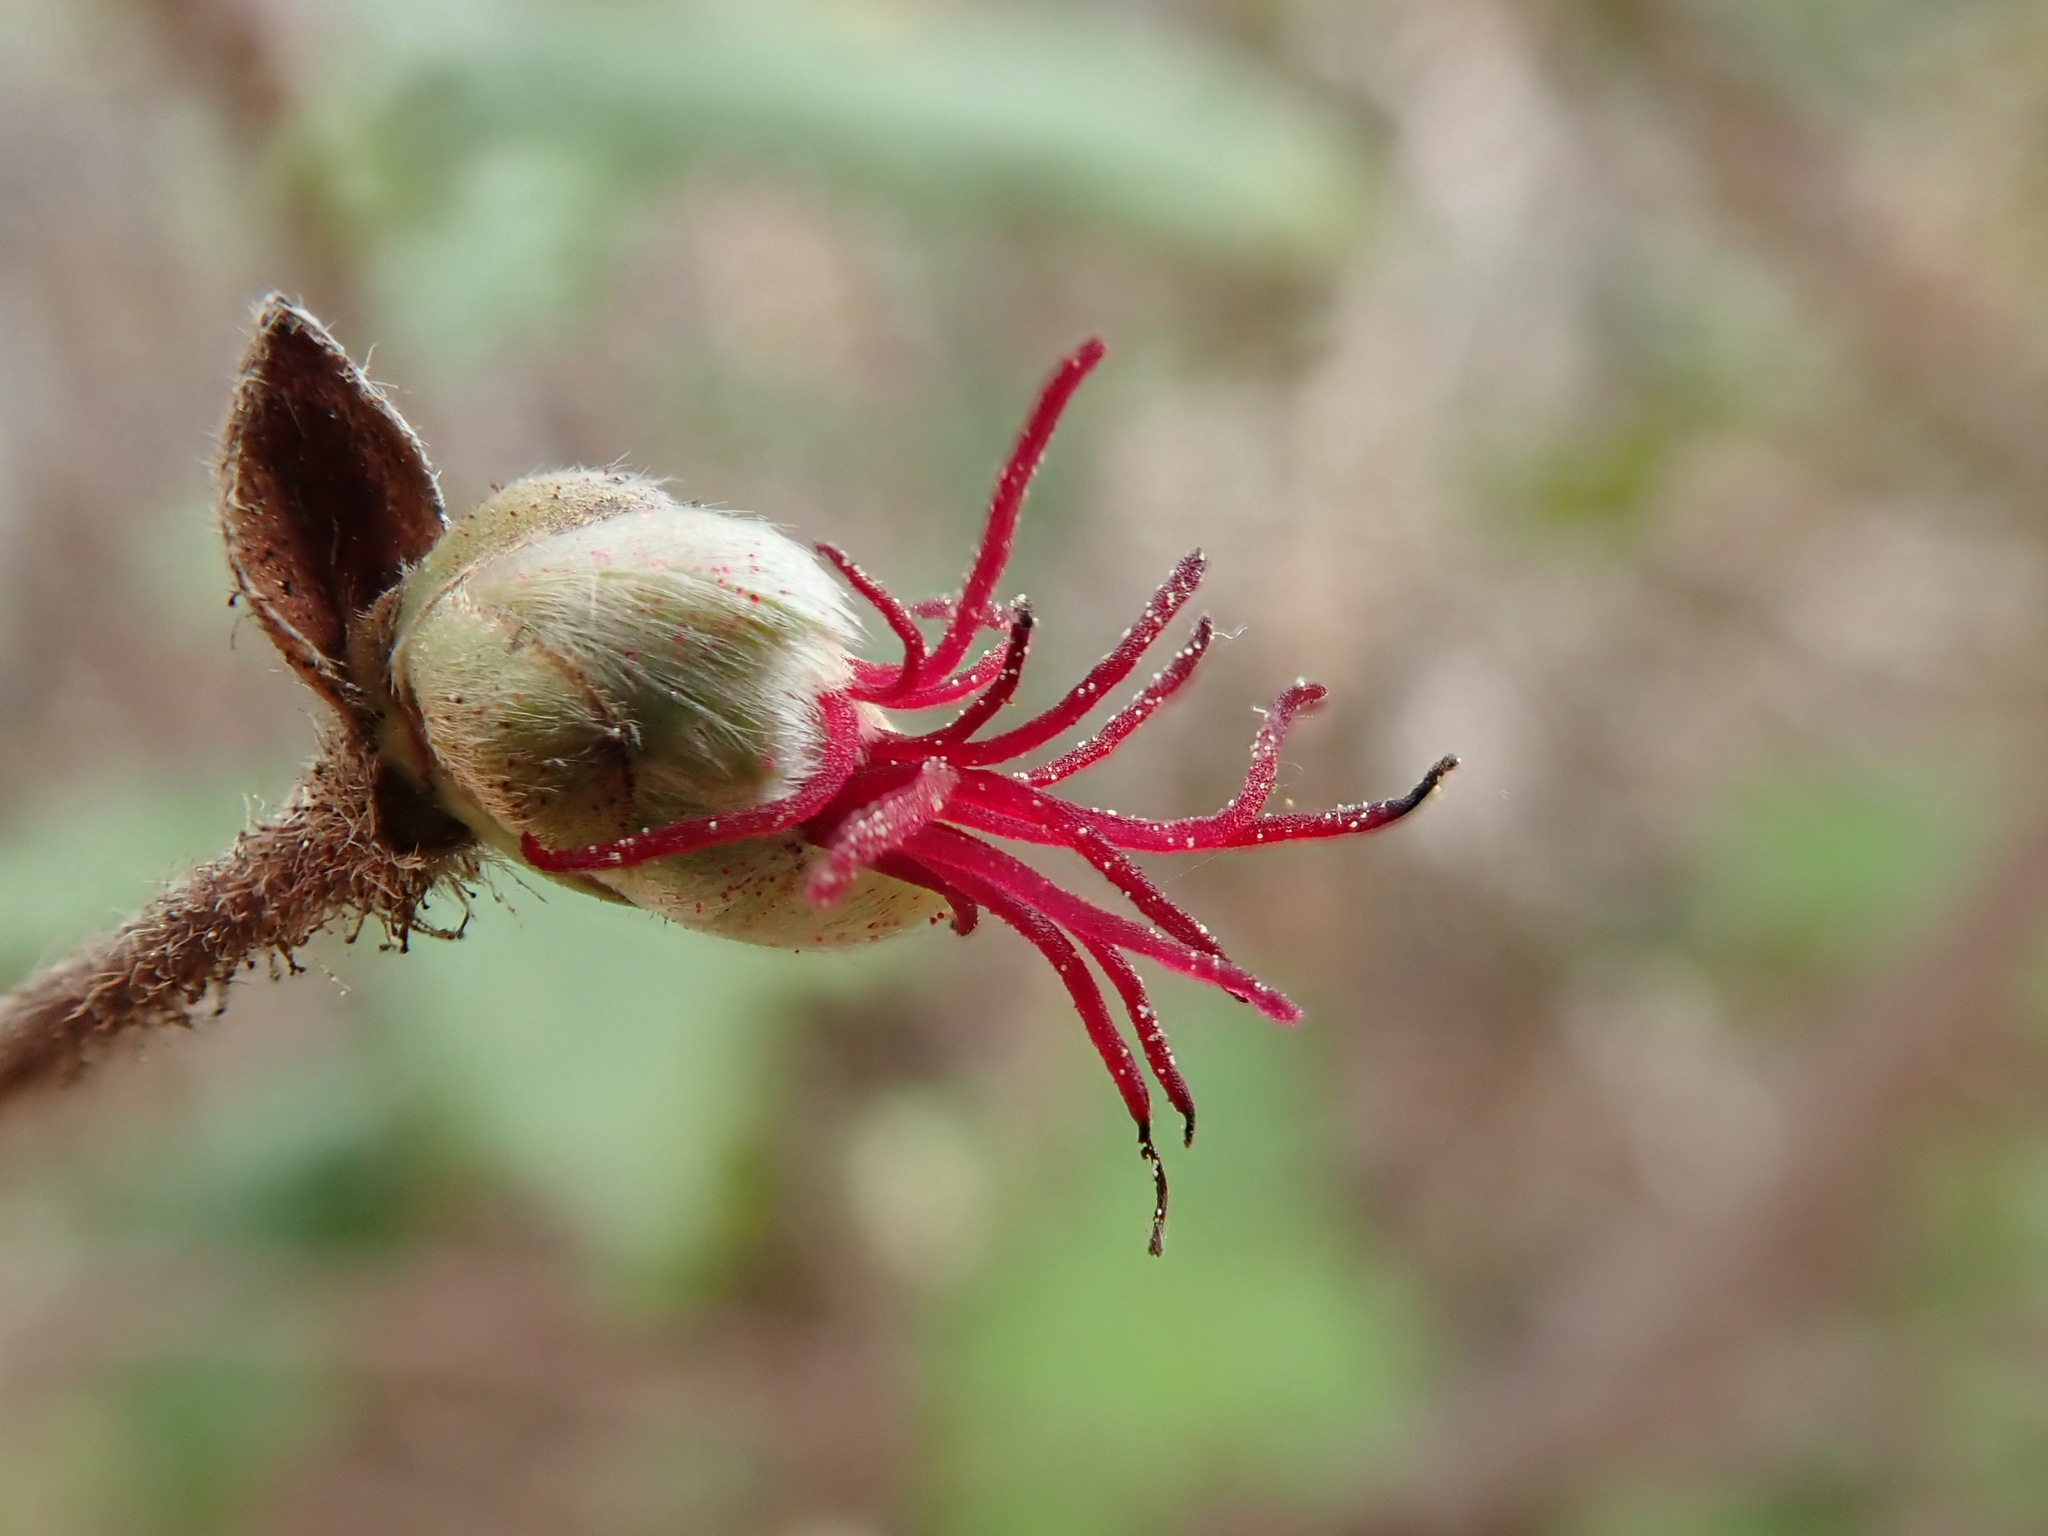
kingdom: Plantae
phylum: Tracheophyta
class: Magnoliopsida
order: Fagales
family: Betulaceae
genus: Corylus
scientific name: Corylus cornuta
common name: Beaked hazel
